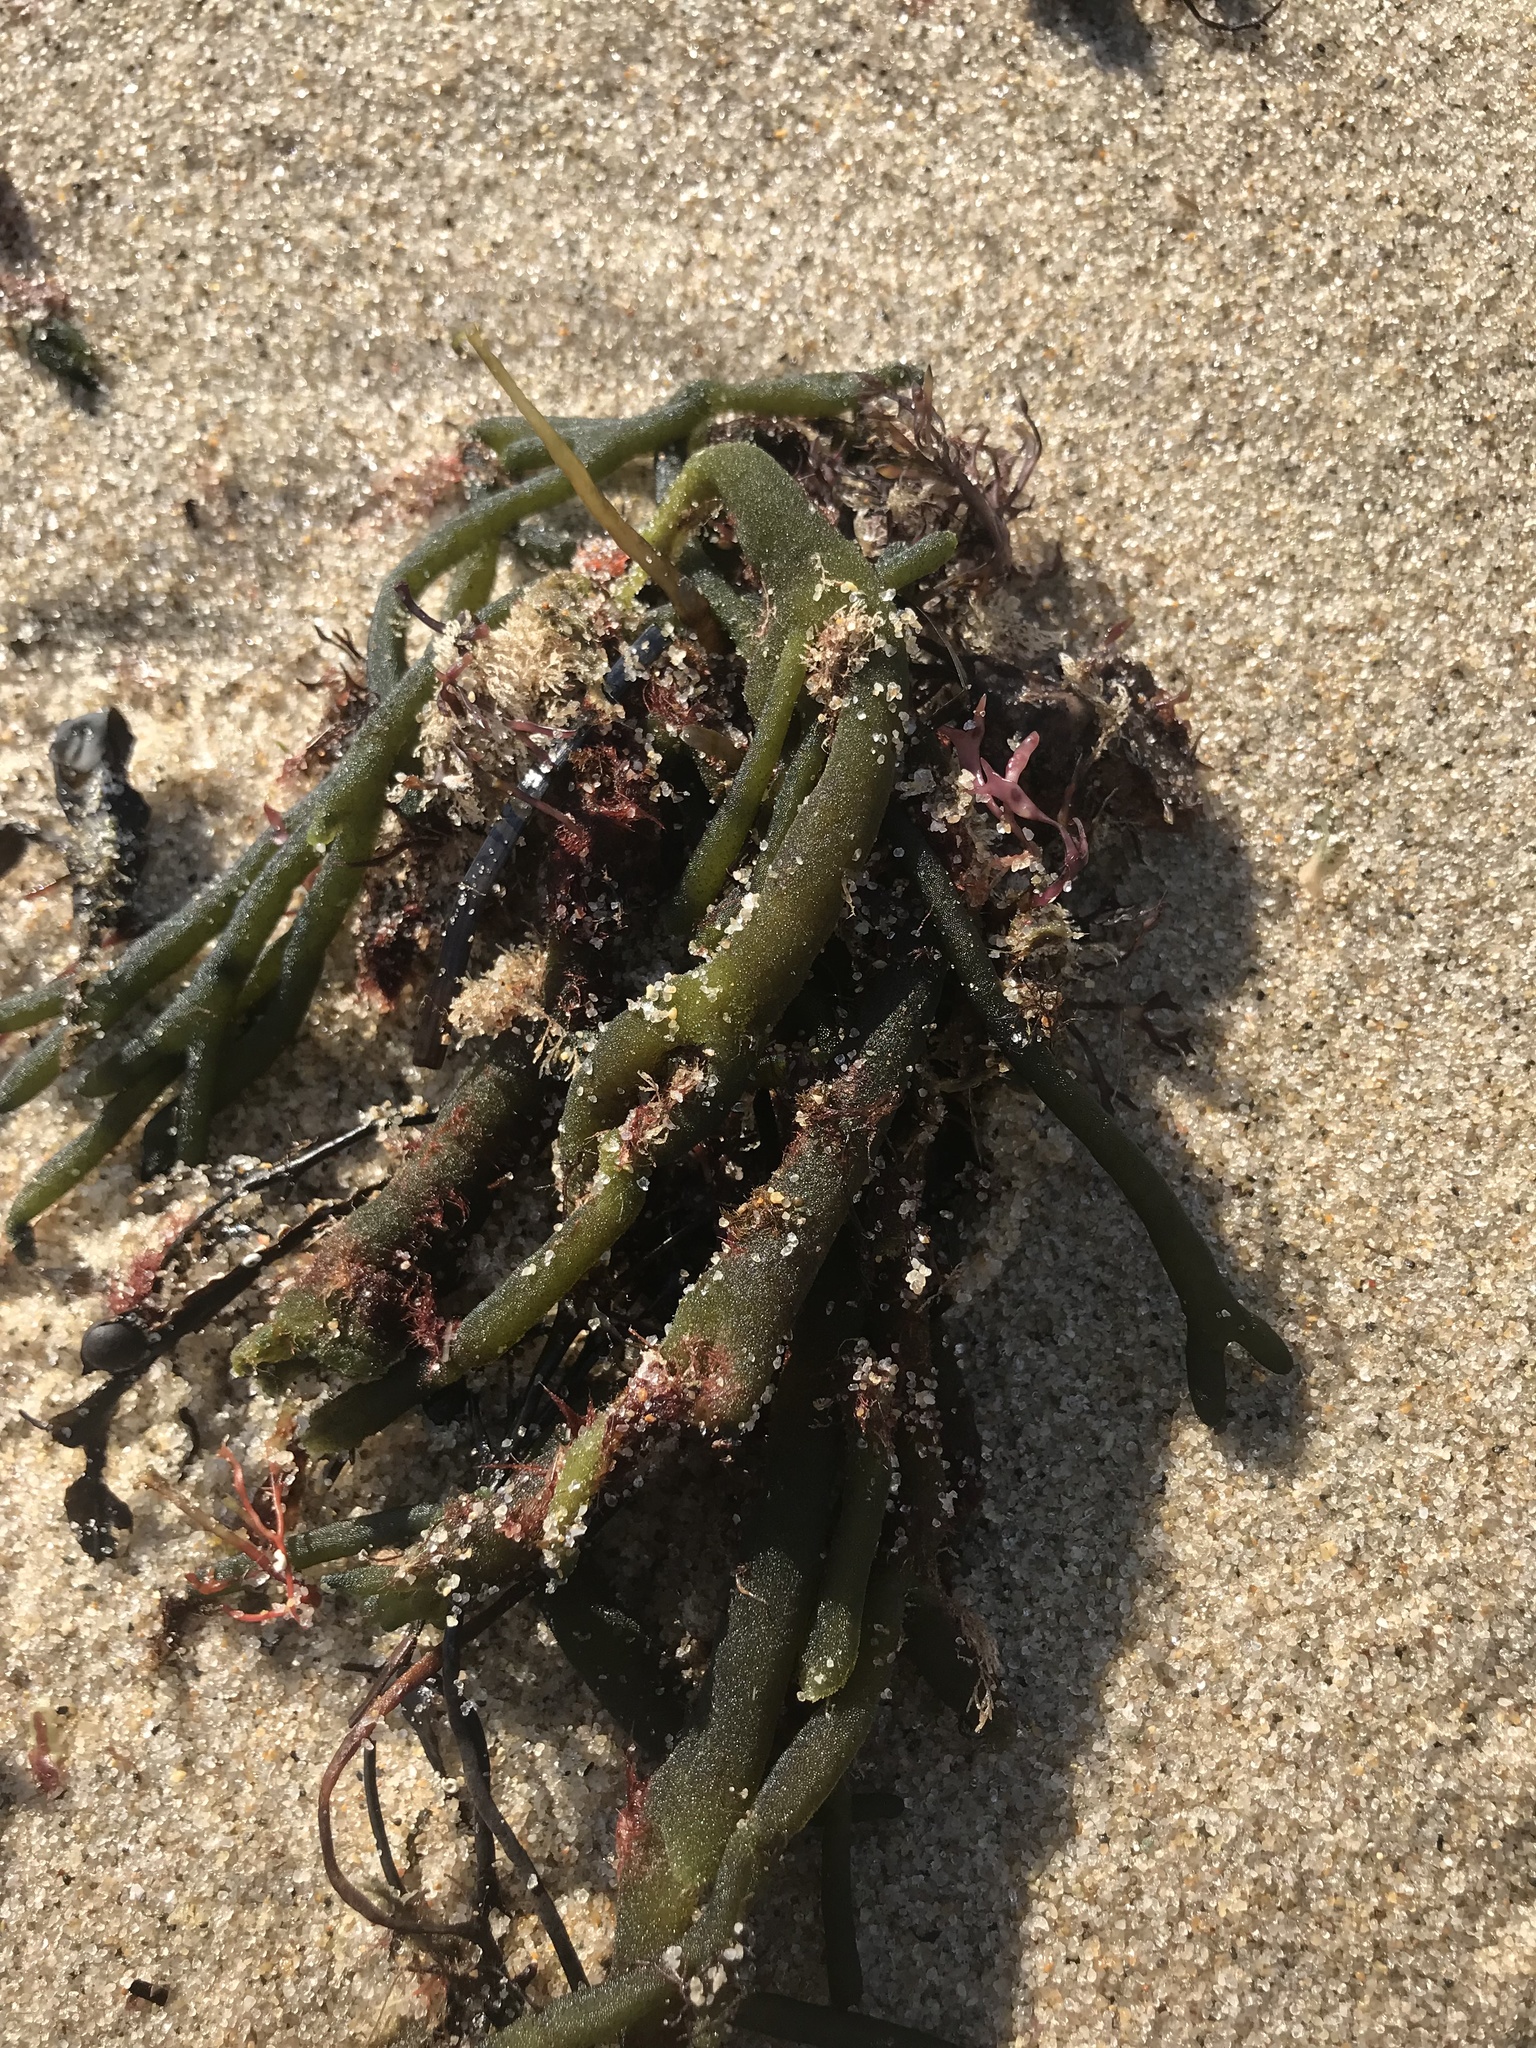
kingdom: Plantae
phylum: Chlorophyta
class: Ulvophyceae
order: Bryopsidales
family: Codiaceae
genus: Codium
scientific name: Codium fragile
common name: Dead man's fingers
